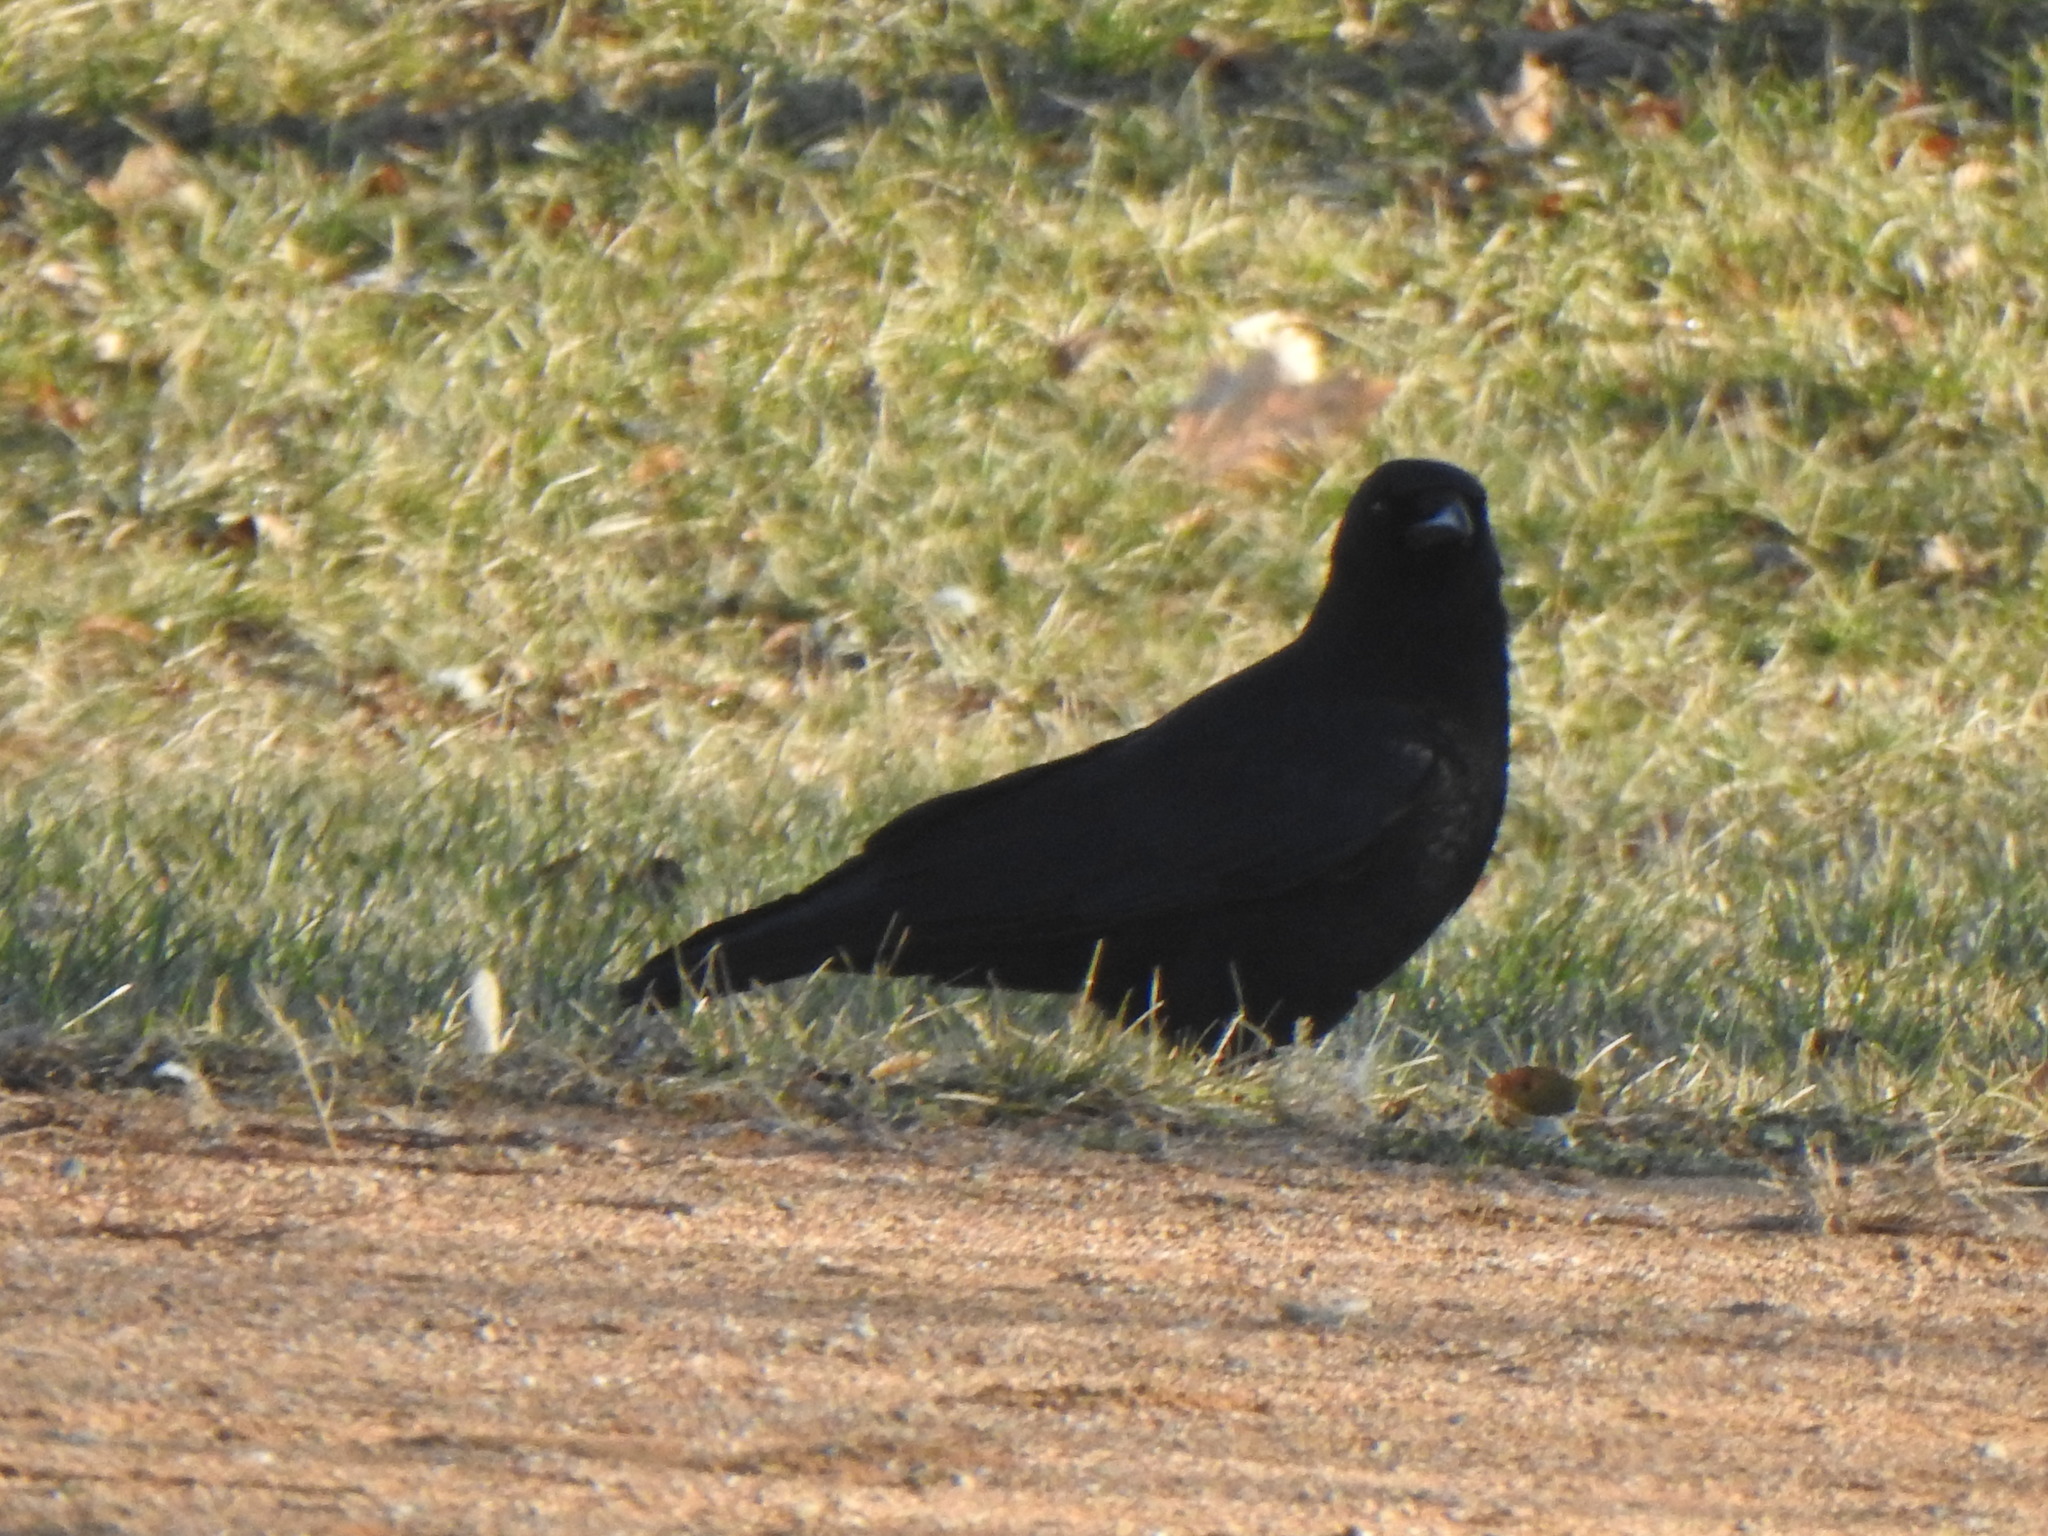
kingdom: Animalia
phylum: Chordata
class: Aves
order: Passeriformes
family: Corvidae
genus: Corvus
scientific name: Corvus brachyrhynchos
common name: American crow
